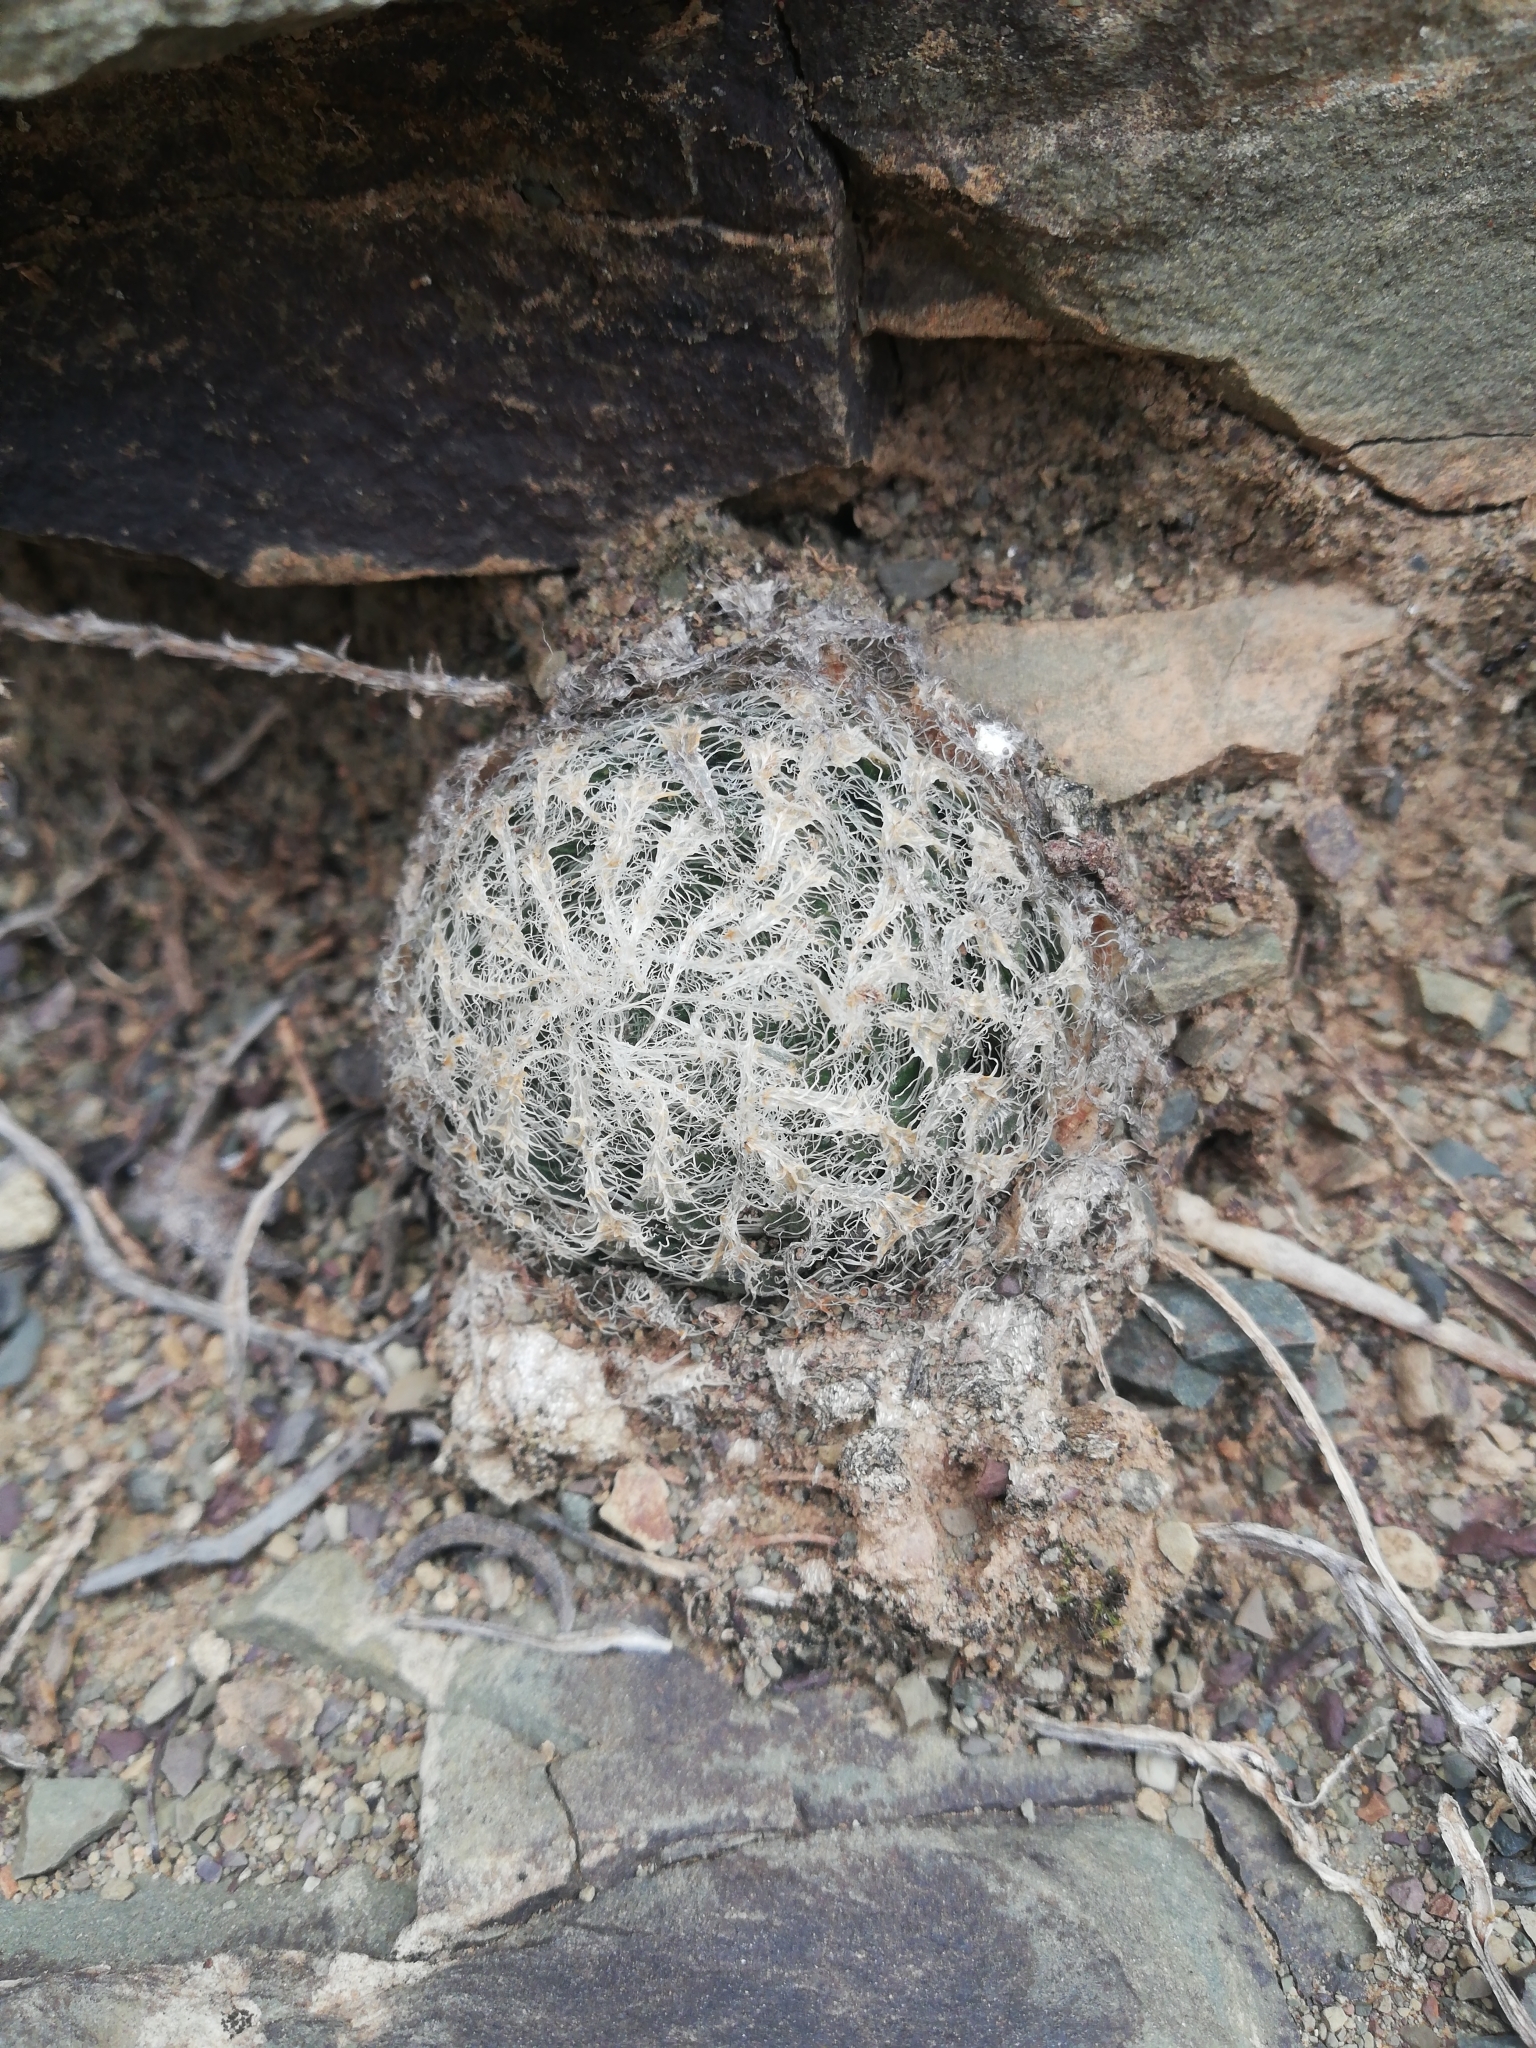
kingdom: Plantae
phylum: Tracheophyta
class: Liliopsida
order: Asparagales
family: Asphodelaceae
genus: Haworthia
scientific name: Haworthia bolusii
